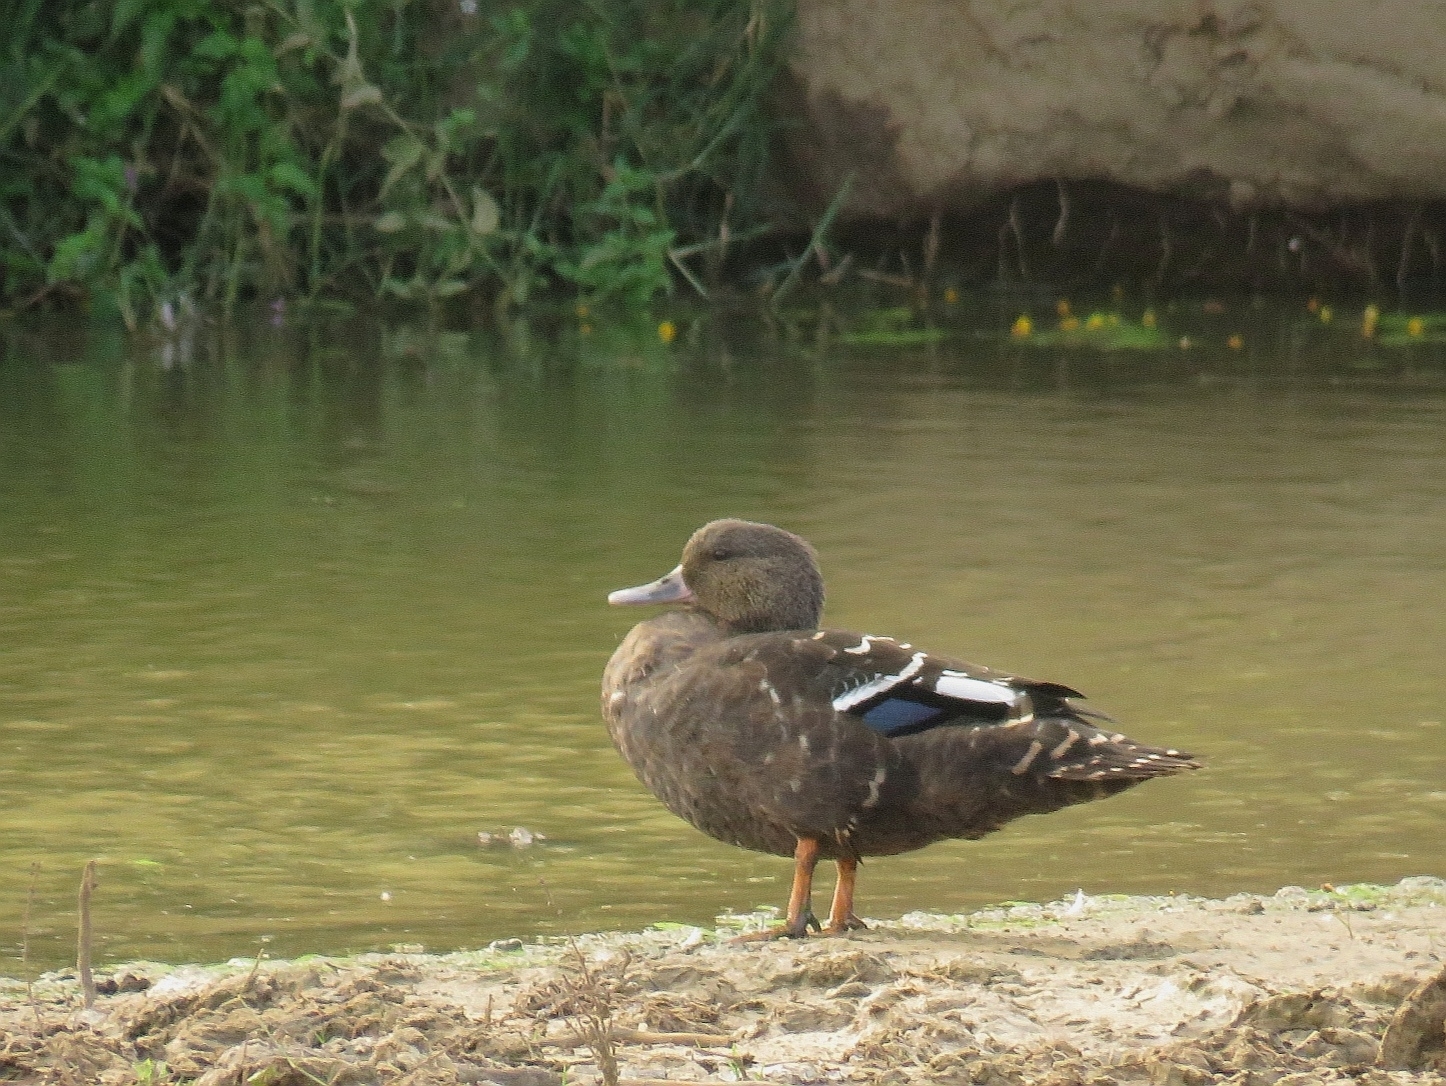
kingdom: Animalia
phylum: Chordata
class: Aves
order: Anseriformes
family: Anatidae
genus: Anas
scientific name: Anas sparsa
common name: African black duck
